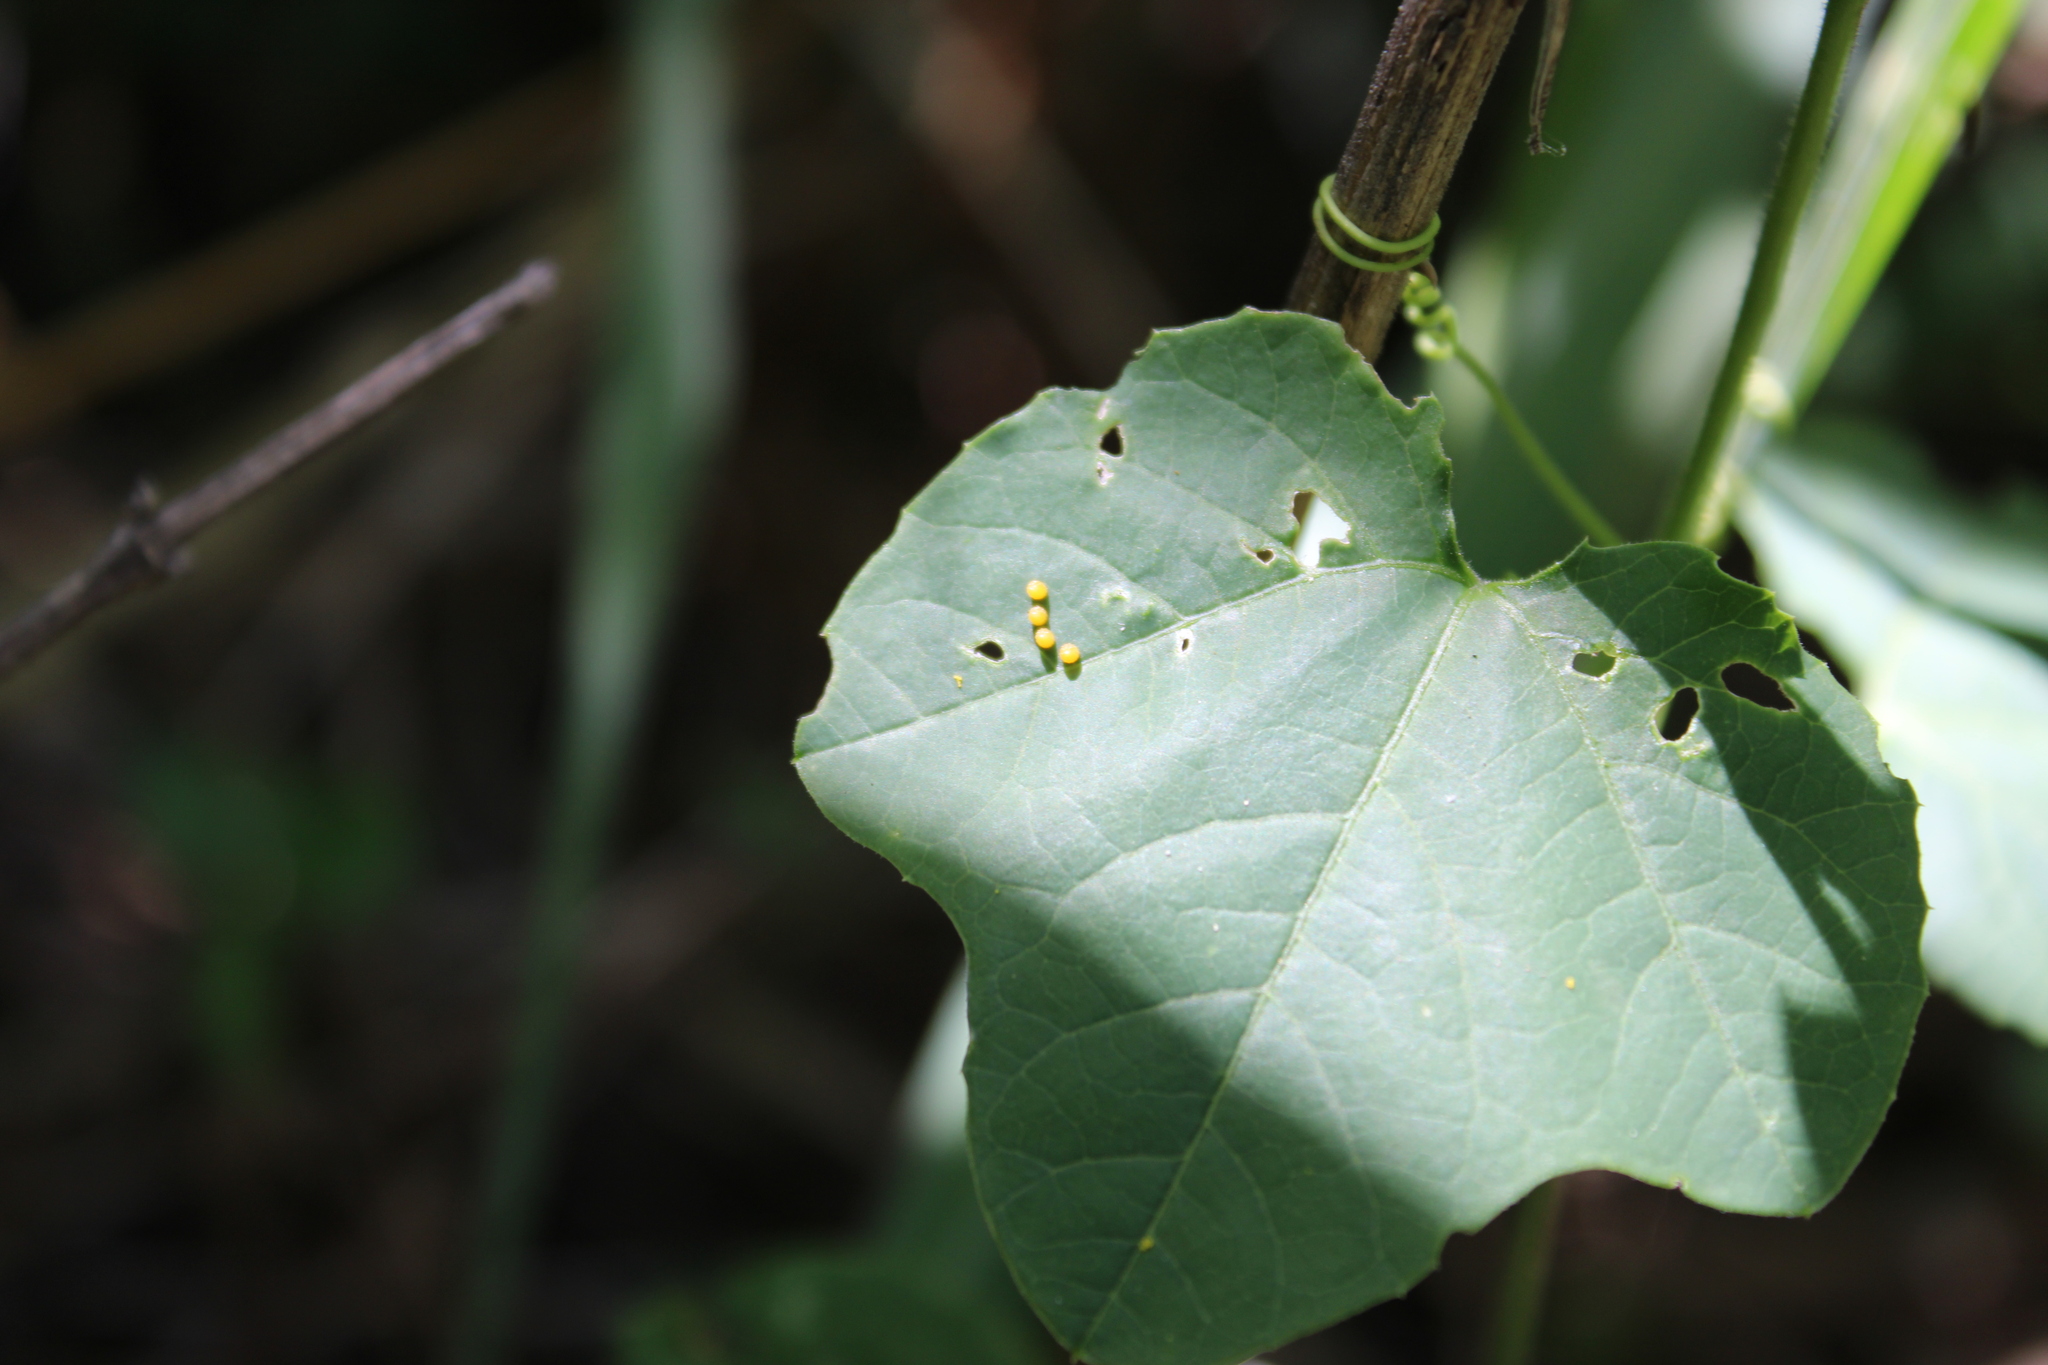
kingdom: Animalia
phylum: Arthropoda
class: Insecta
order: Lepidoptera
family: Nymphalidae
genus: Dione
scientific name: Dione moneta
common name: Mexican silverspot
